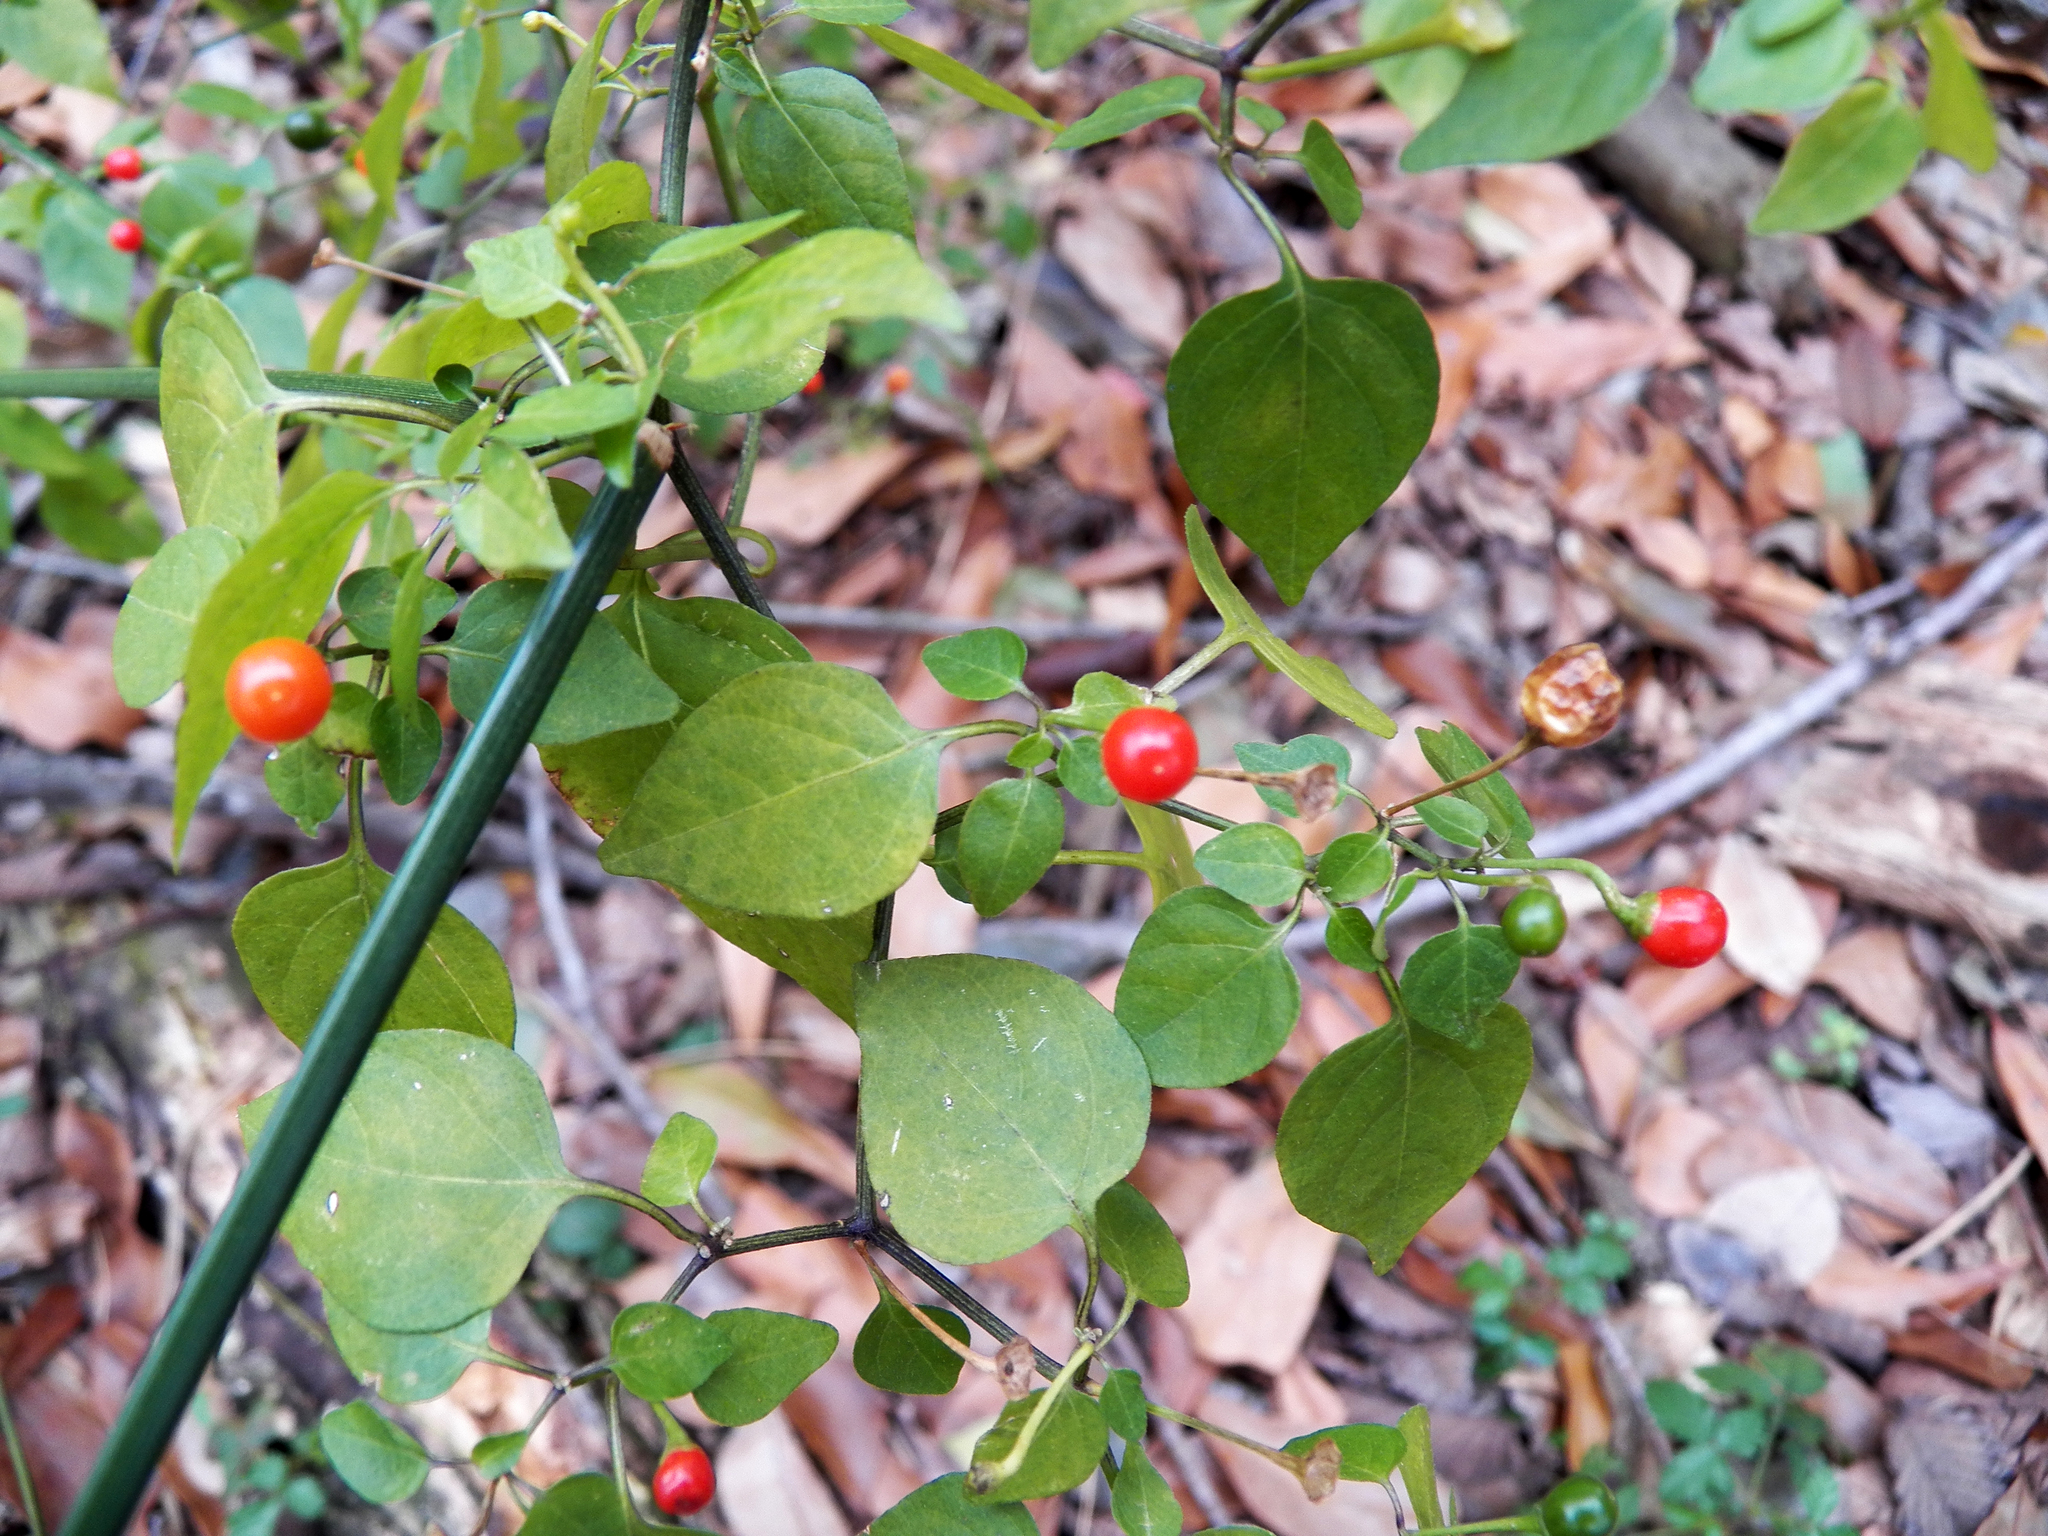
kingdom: Plantae
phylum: Tracheophyta
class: Magnoliopsida
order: Solanales
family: Solanaceae
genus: Capsicum
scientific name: Capsicum annuum
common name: Sweet pepper
